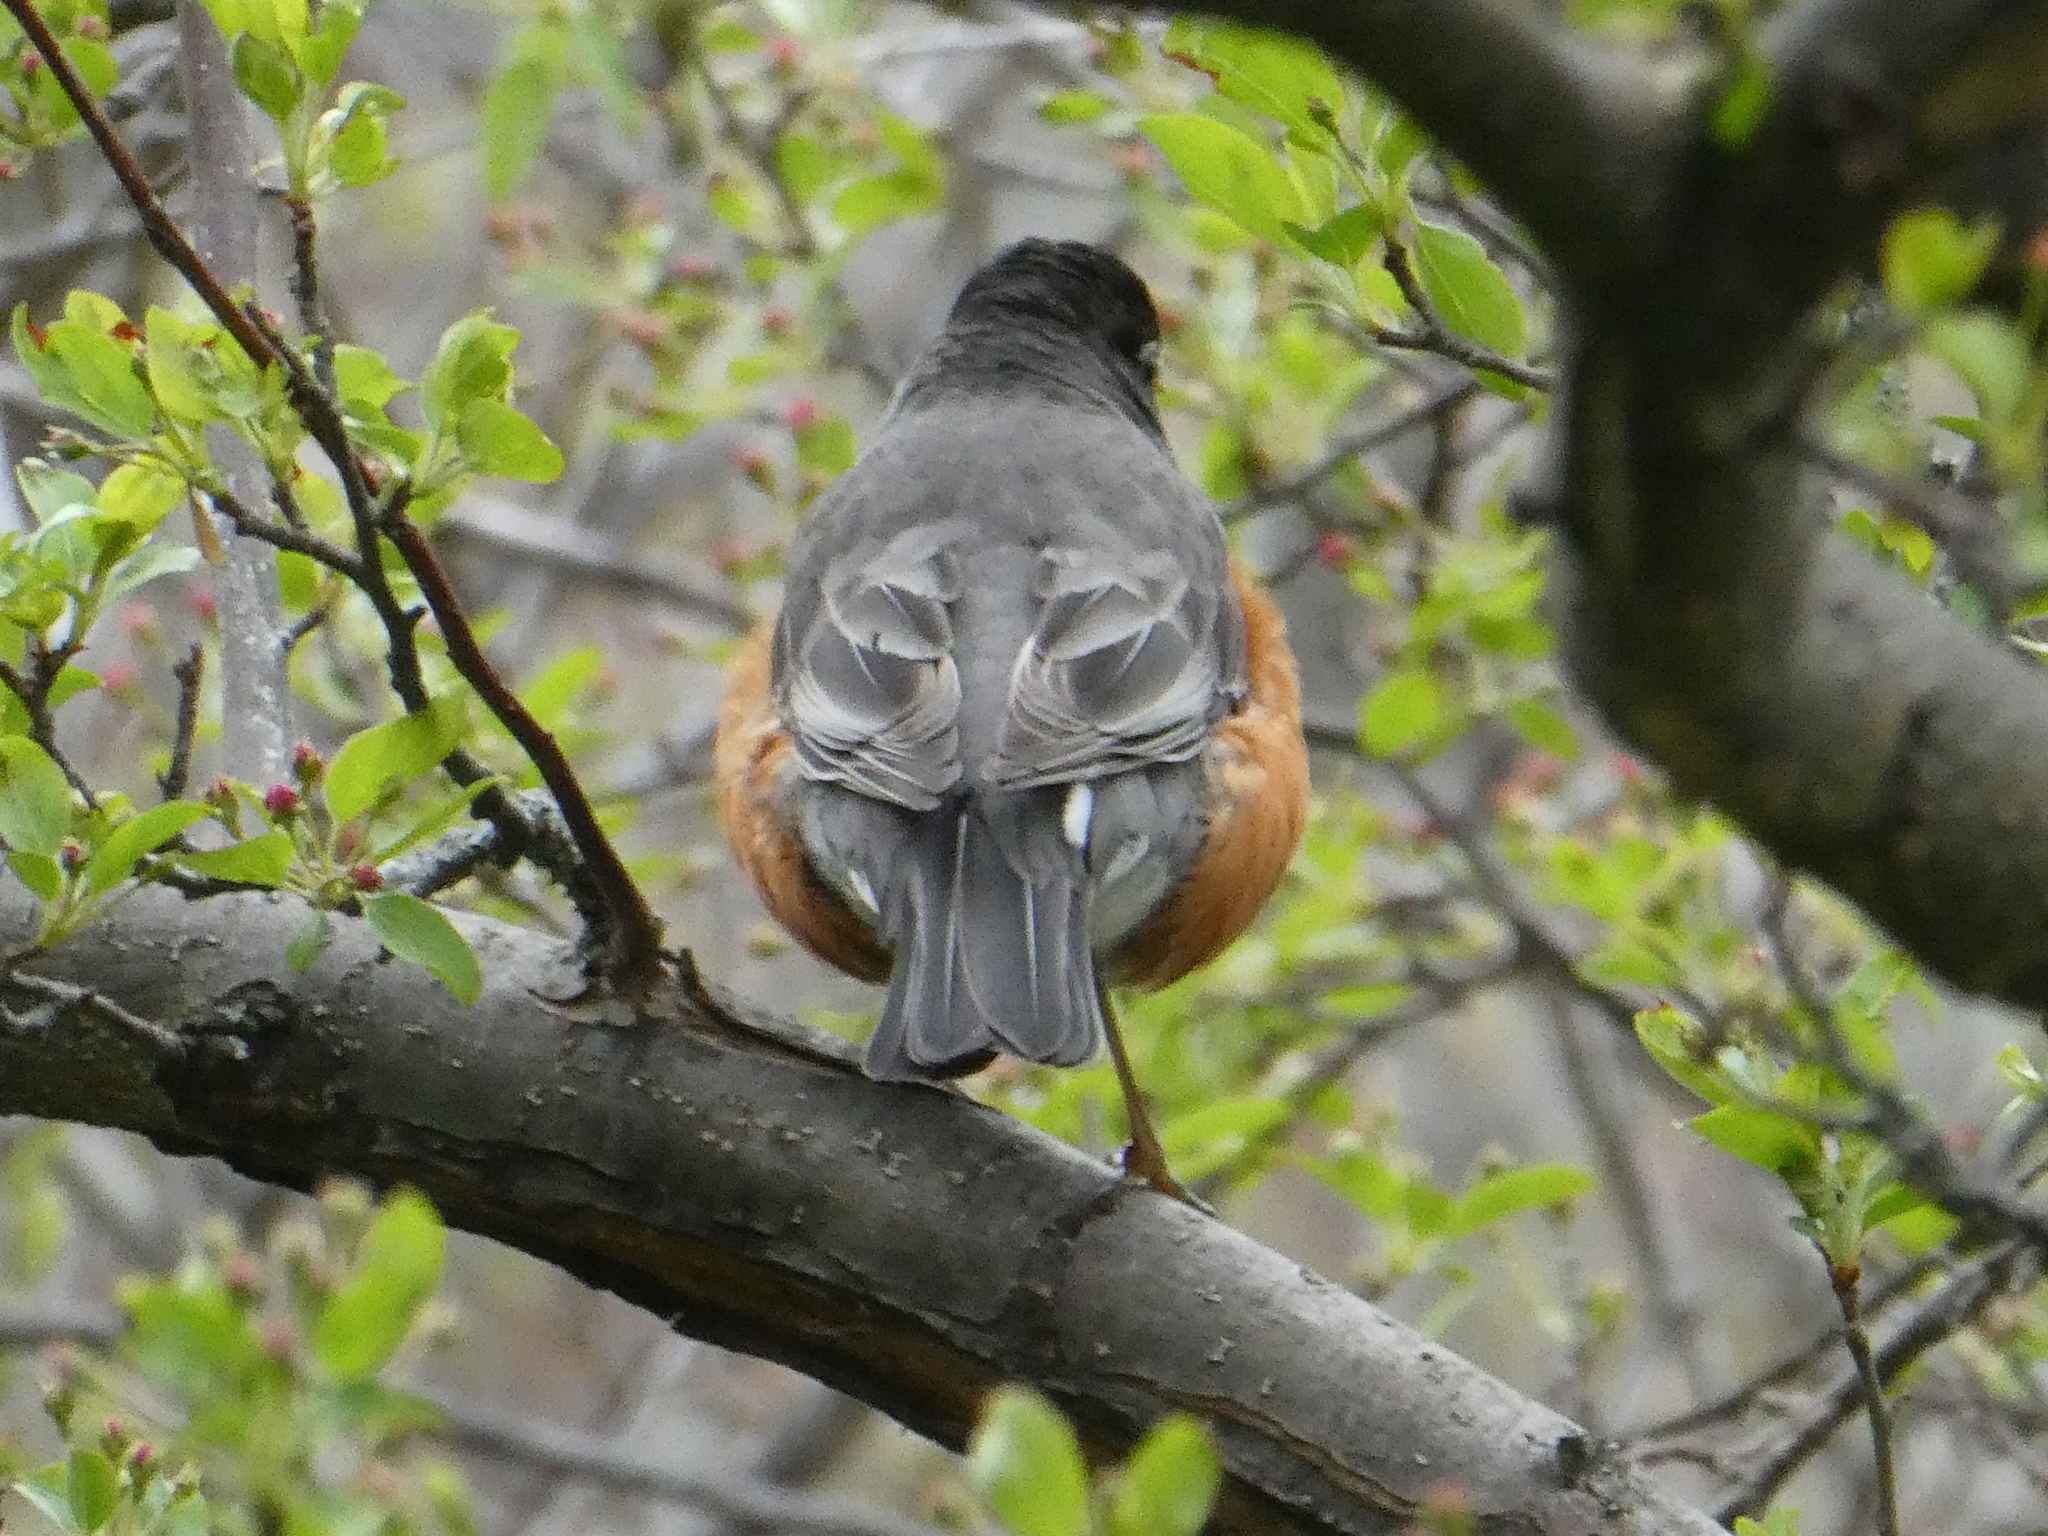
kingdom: Animalia
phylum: Chordata
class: Aves
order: Passeriformes
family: Turdidae
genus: Turdus
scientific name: Turdus migratorius
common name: American robin
